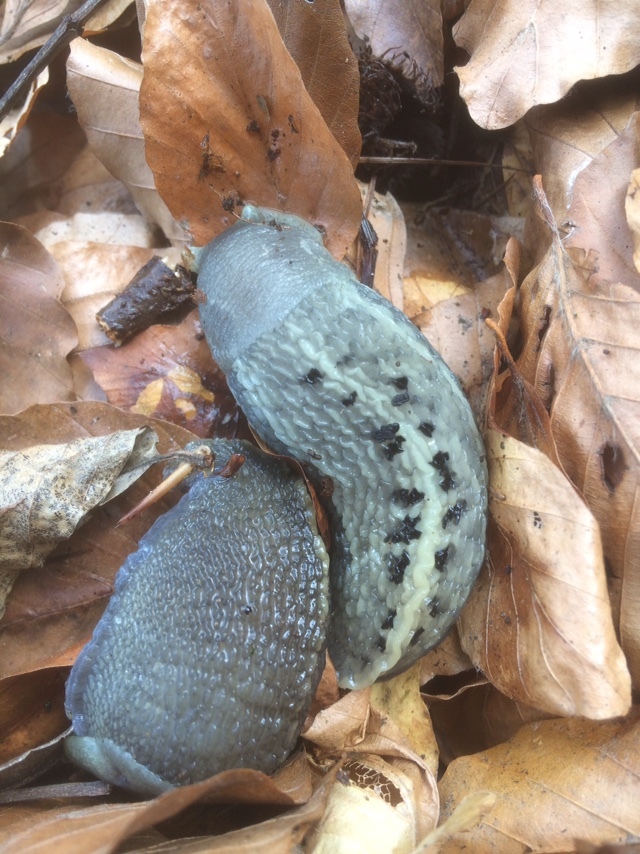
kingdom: Animalia
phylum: Mollusca
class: Gastropoda
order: Stylommatophora
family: Limacidae
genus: Limax
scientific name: Limax cinereoniger
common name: Ash-black slug
